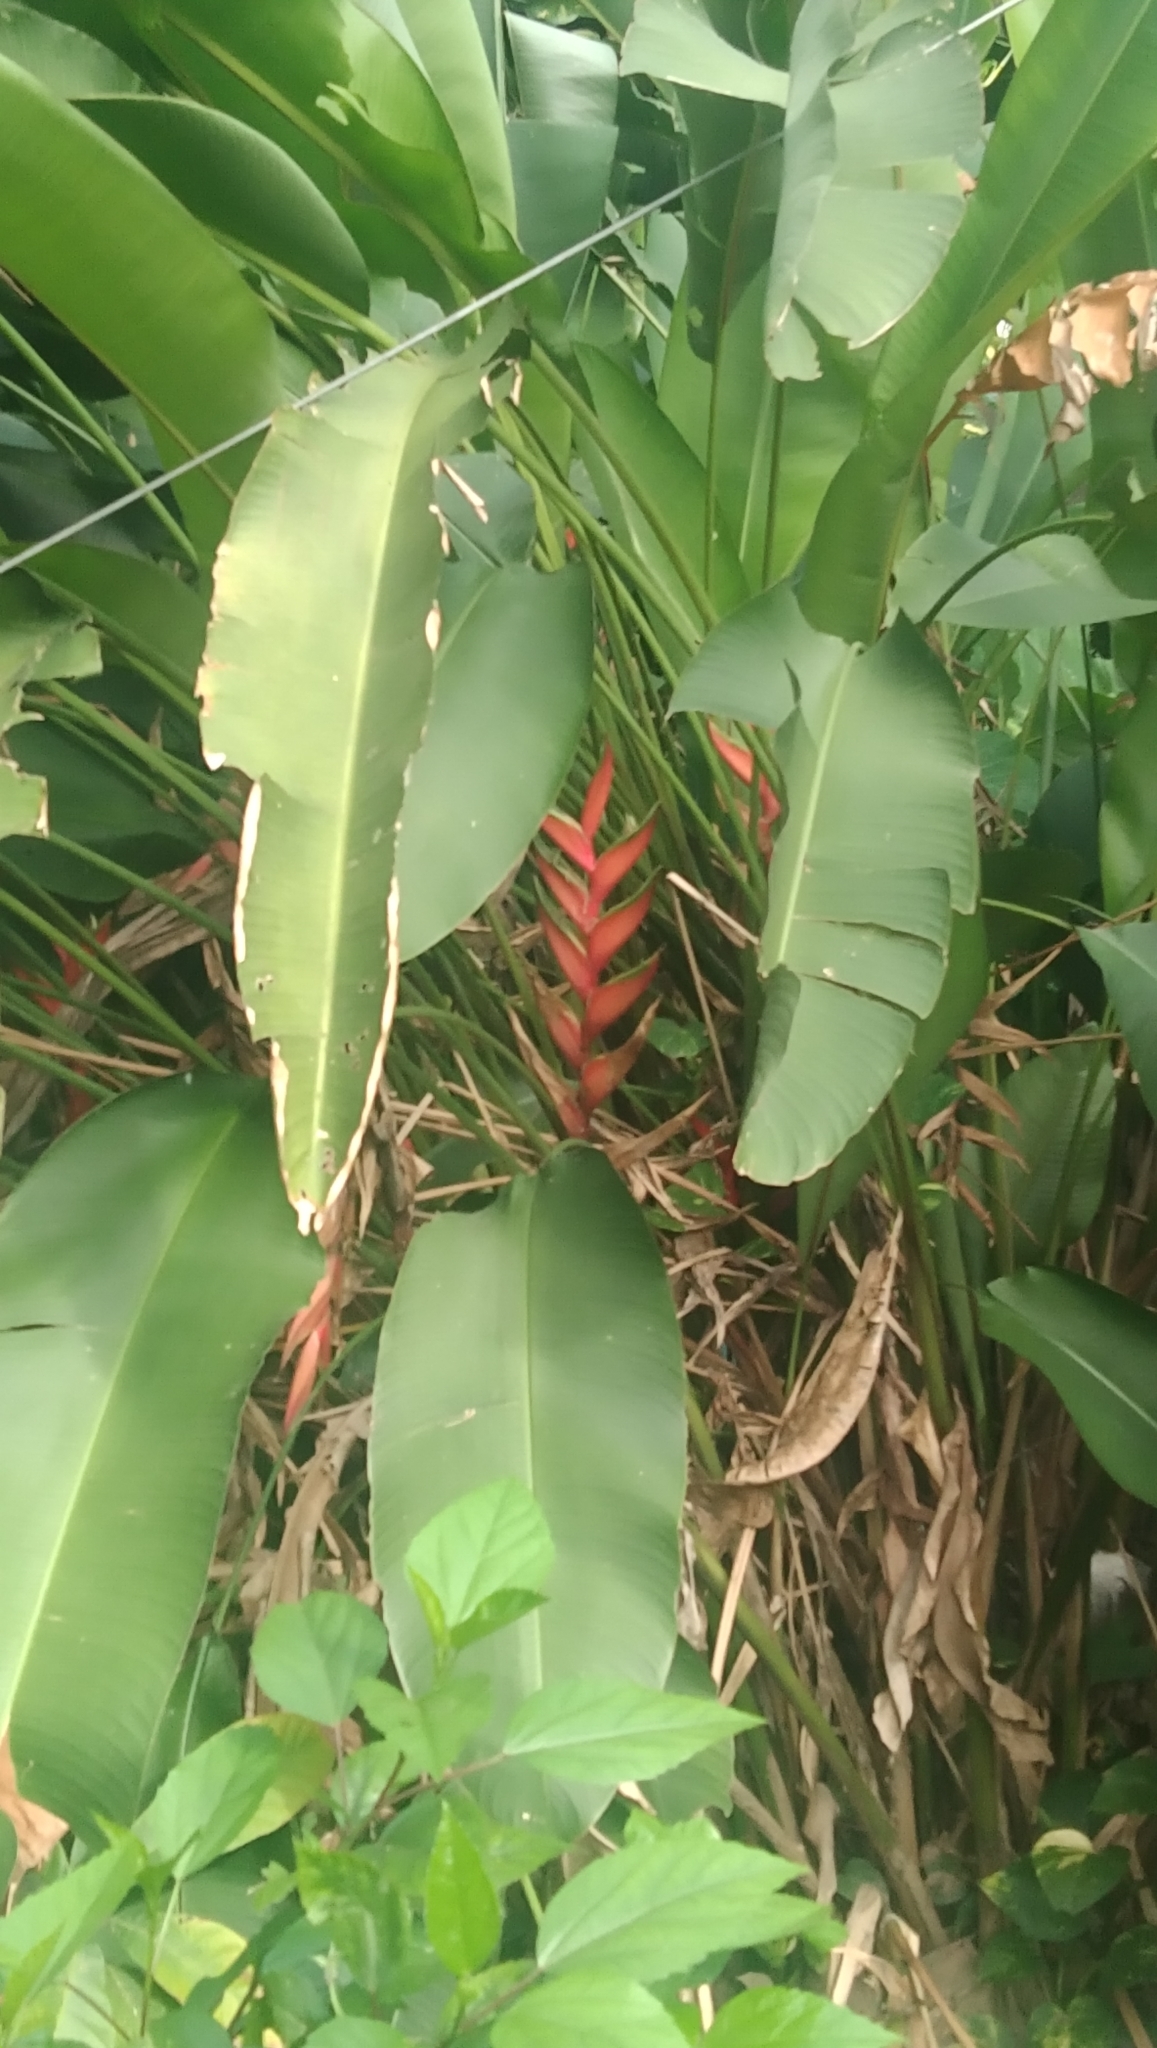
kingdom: Plantae
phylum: Tracheophyta
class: Liliopsida
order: Zingiberales
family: Heliconiaceae
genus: Heliconia
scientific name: Heliconia bihai
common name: Macaw flower
